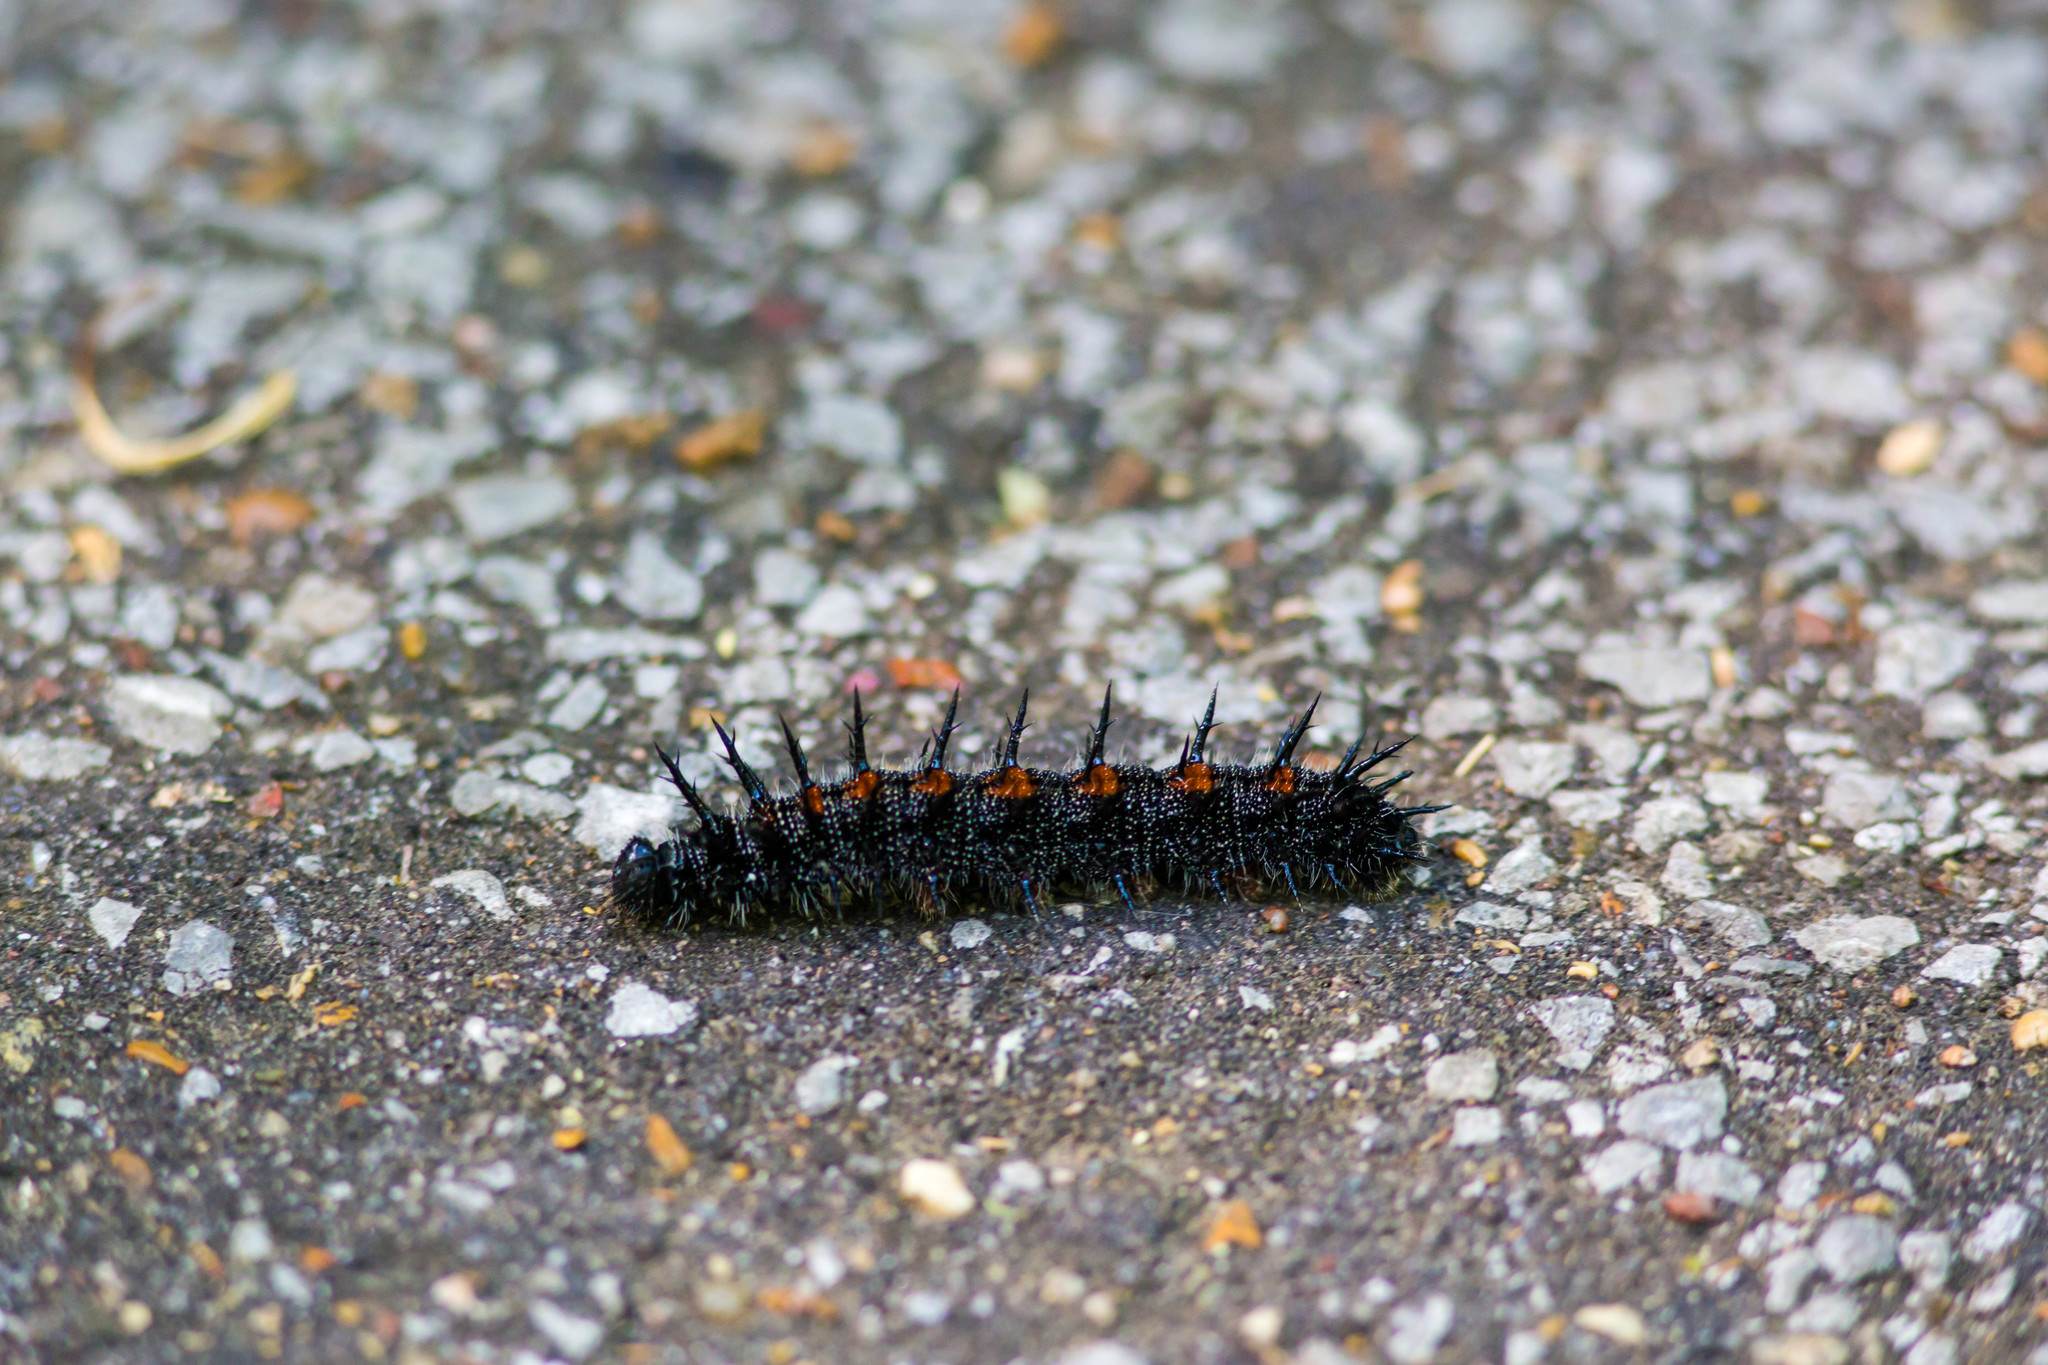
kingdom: Animalia
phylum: Arthropoda
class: Insecta
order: Lepidoptera
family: Nymphalidae
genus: Nymphalis
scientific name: Nymphalis antiopa
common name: Camberwell beauty
